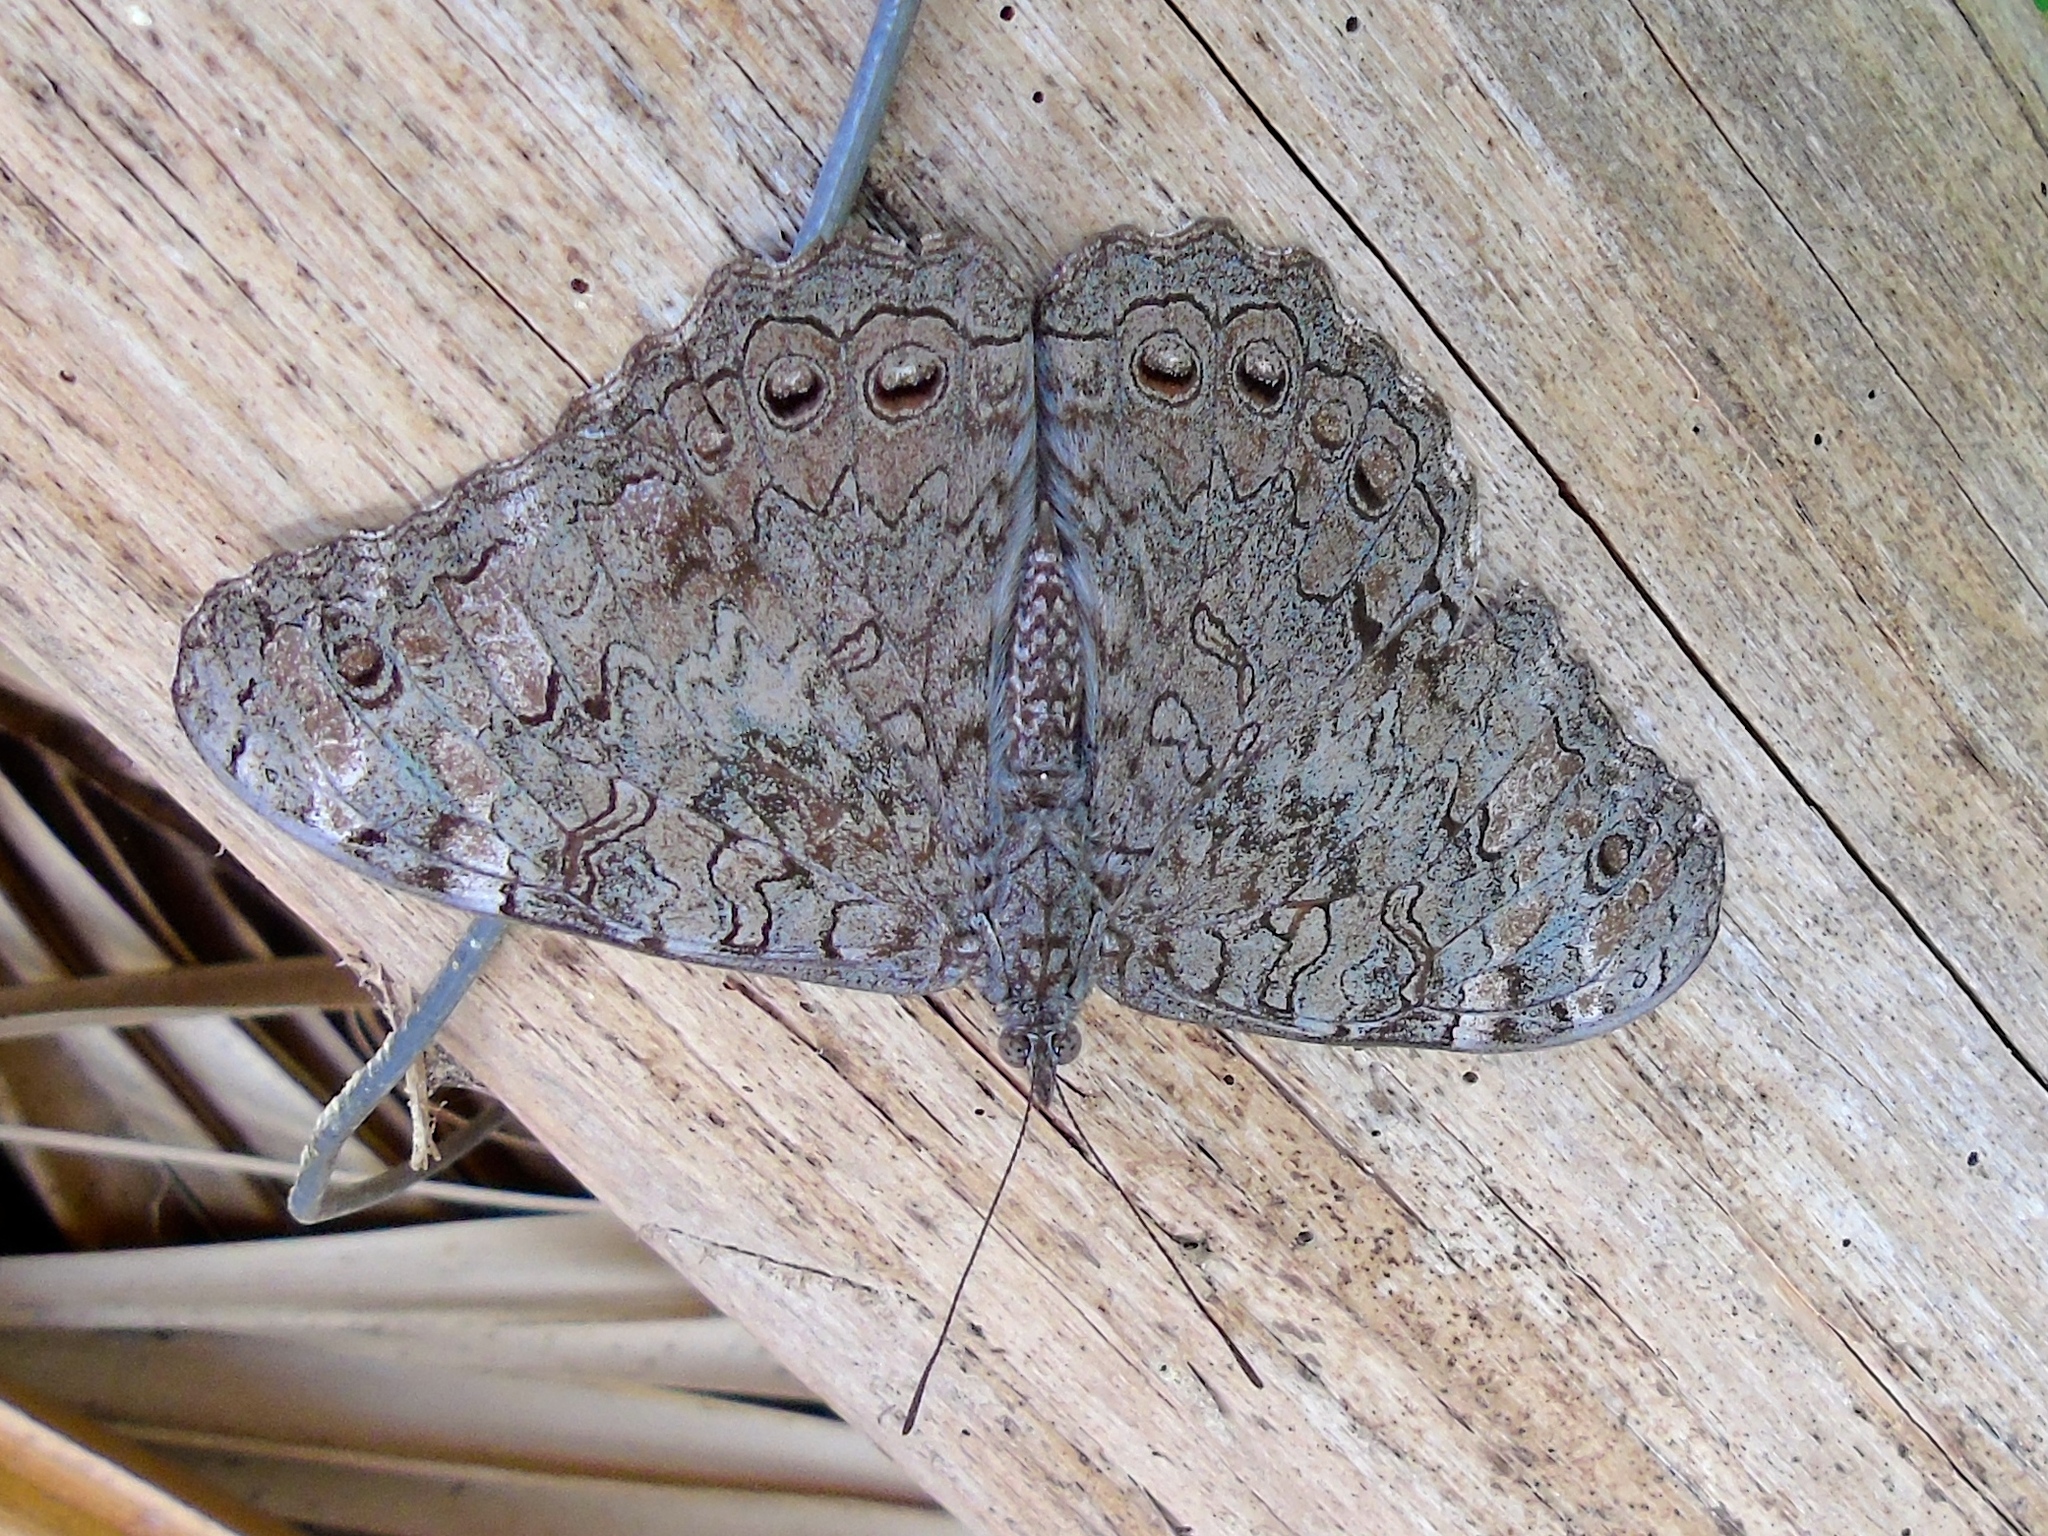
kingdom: Animalia
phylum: Arthropoda
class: Insecta
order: Lepidoptera
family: Nymphalidae
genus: Hamadryas
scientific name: Hamadryas februa
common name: Gray cracker
